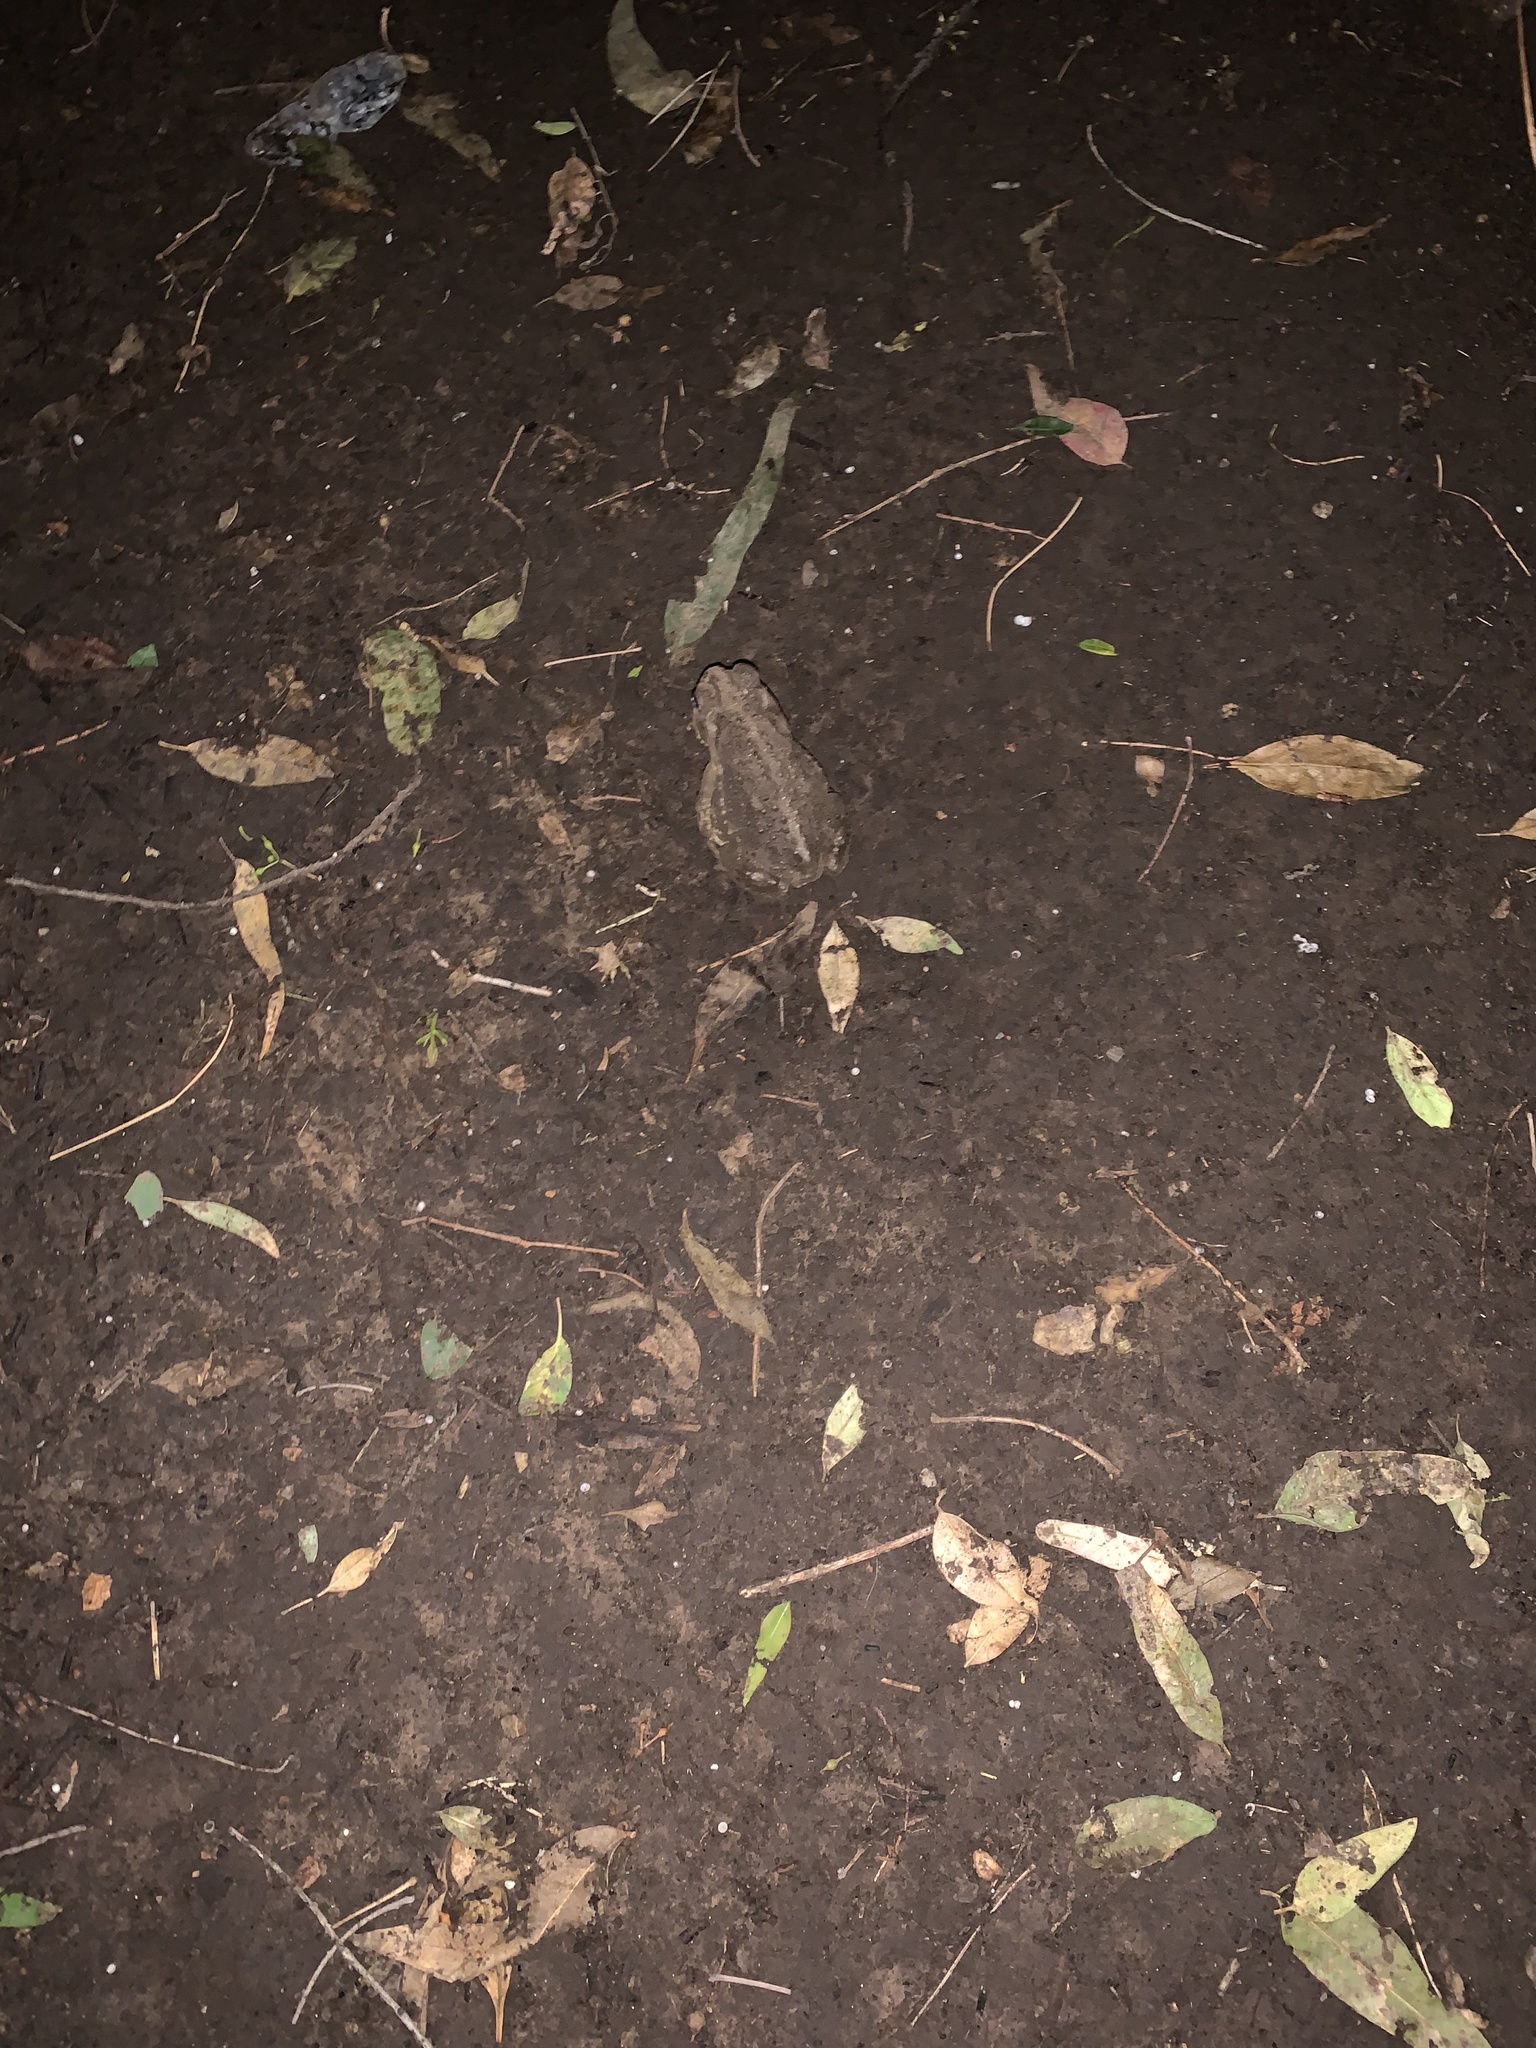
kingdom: Animalia
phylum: Chordata
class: Amphibia
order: Anura
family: Bufonidae
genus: Rhinella
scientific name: Rhinella arenarum
